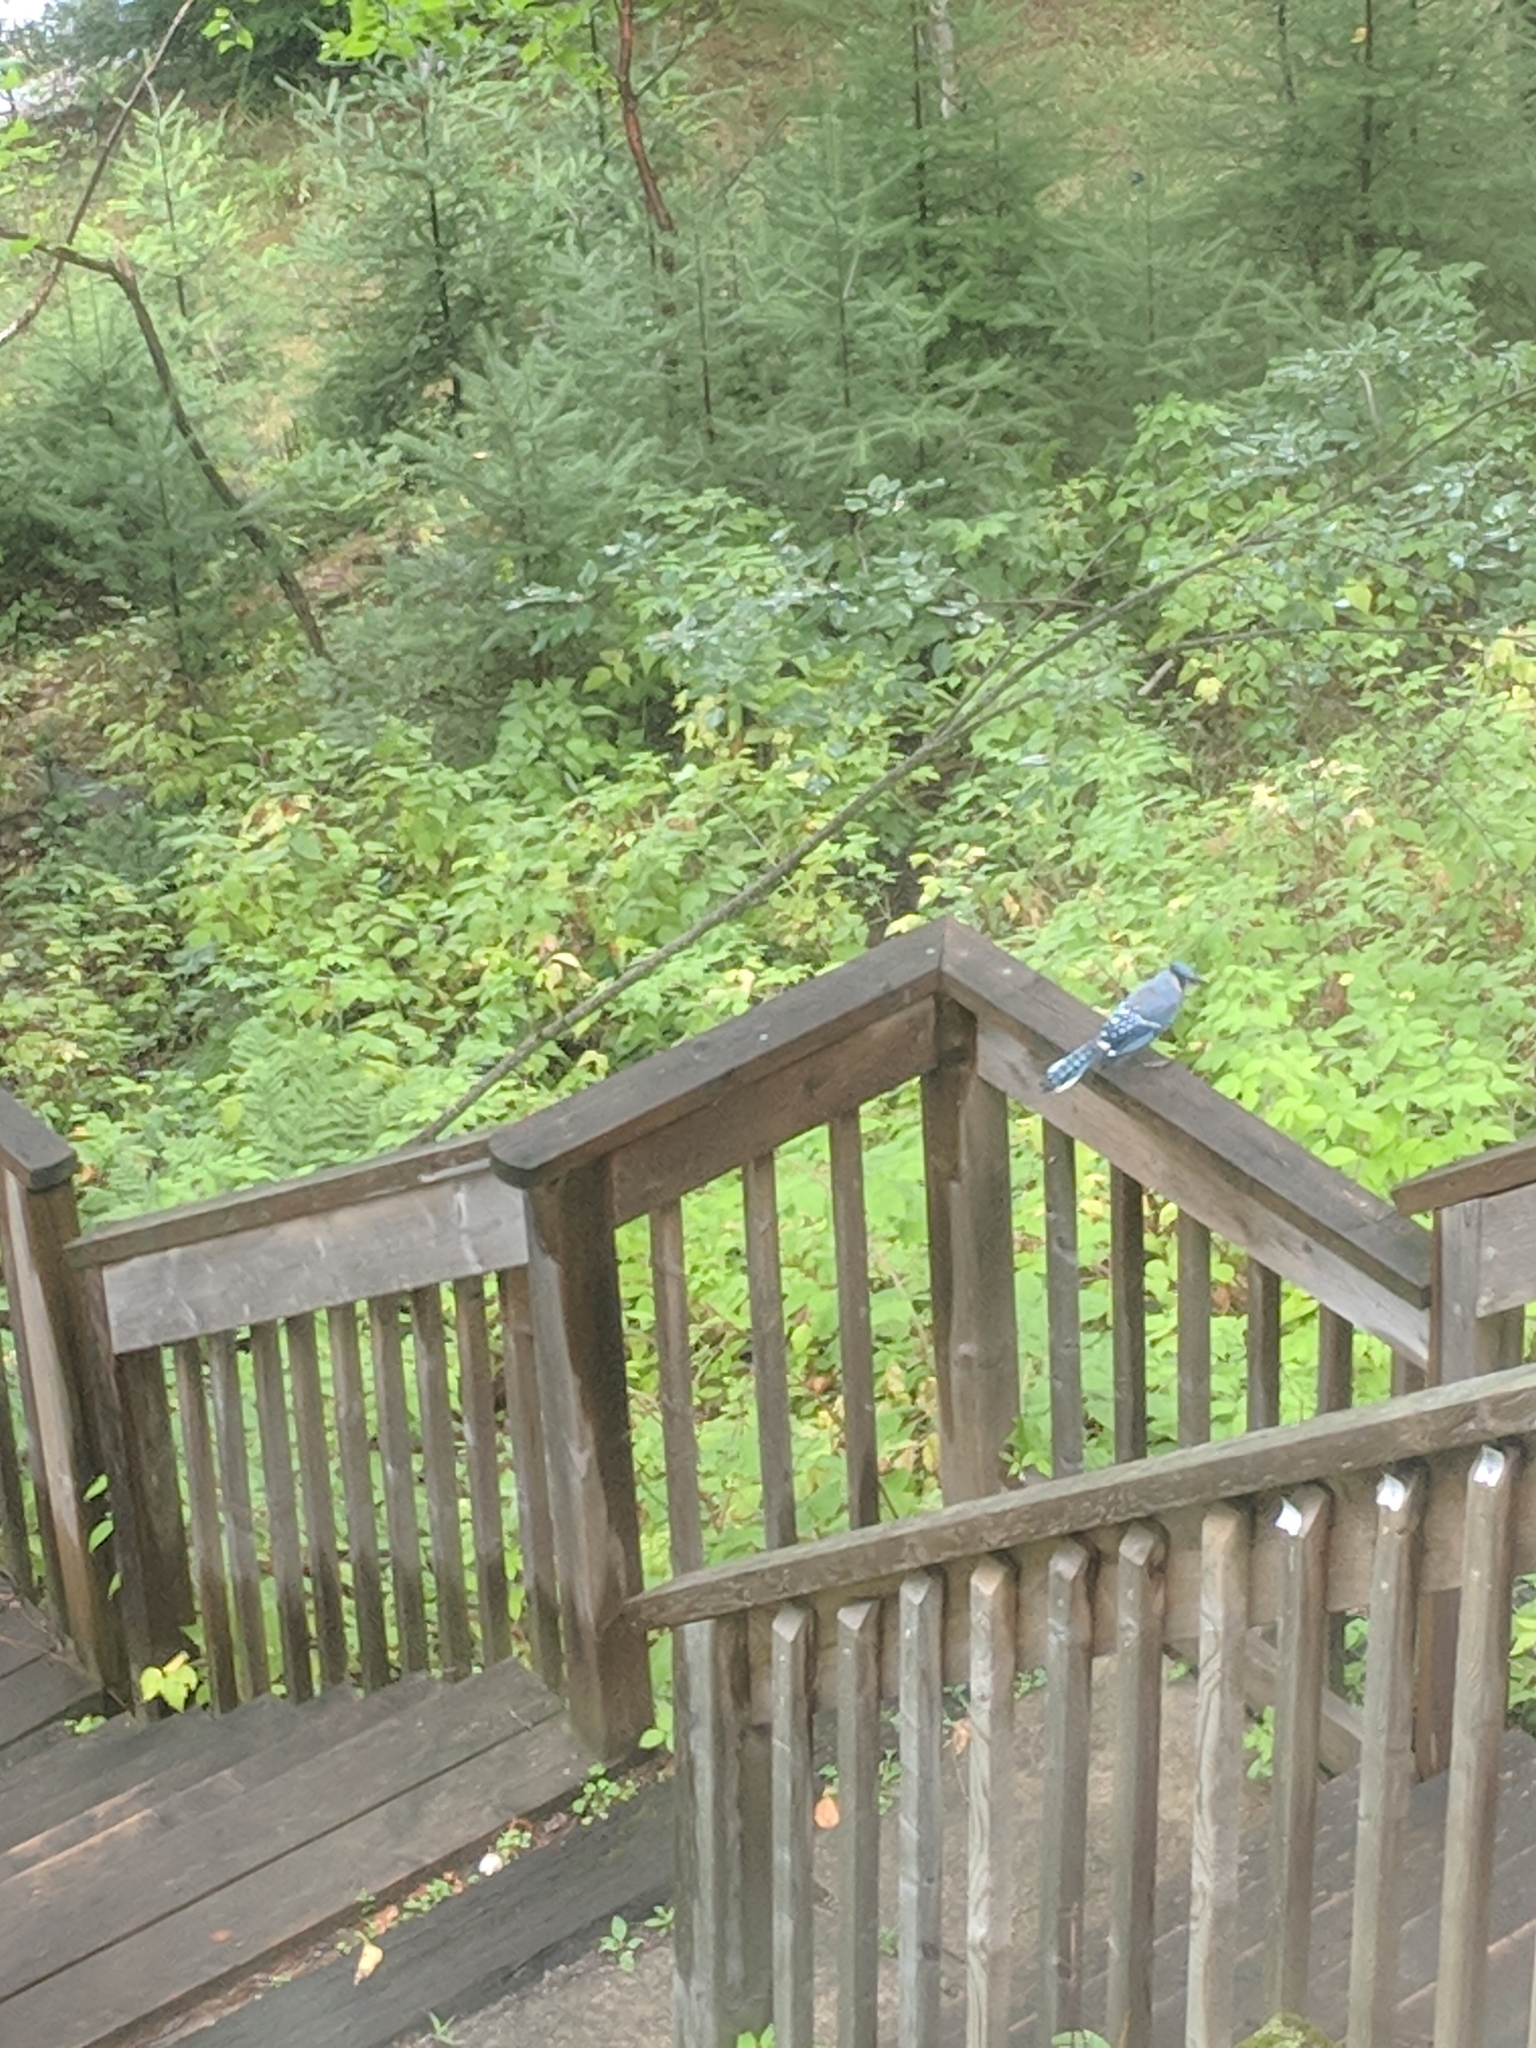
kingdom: Animalia
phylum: Chordata
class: Aves
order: Passeriformes
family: Corvidae
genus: Cyanocitta
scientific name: Cyanocitta cristata
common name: Blue jay
